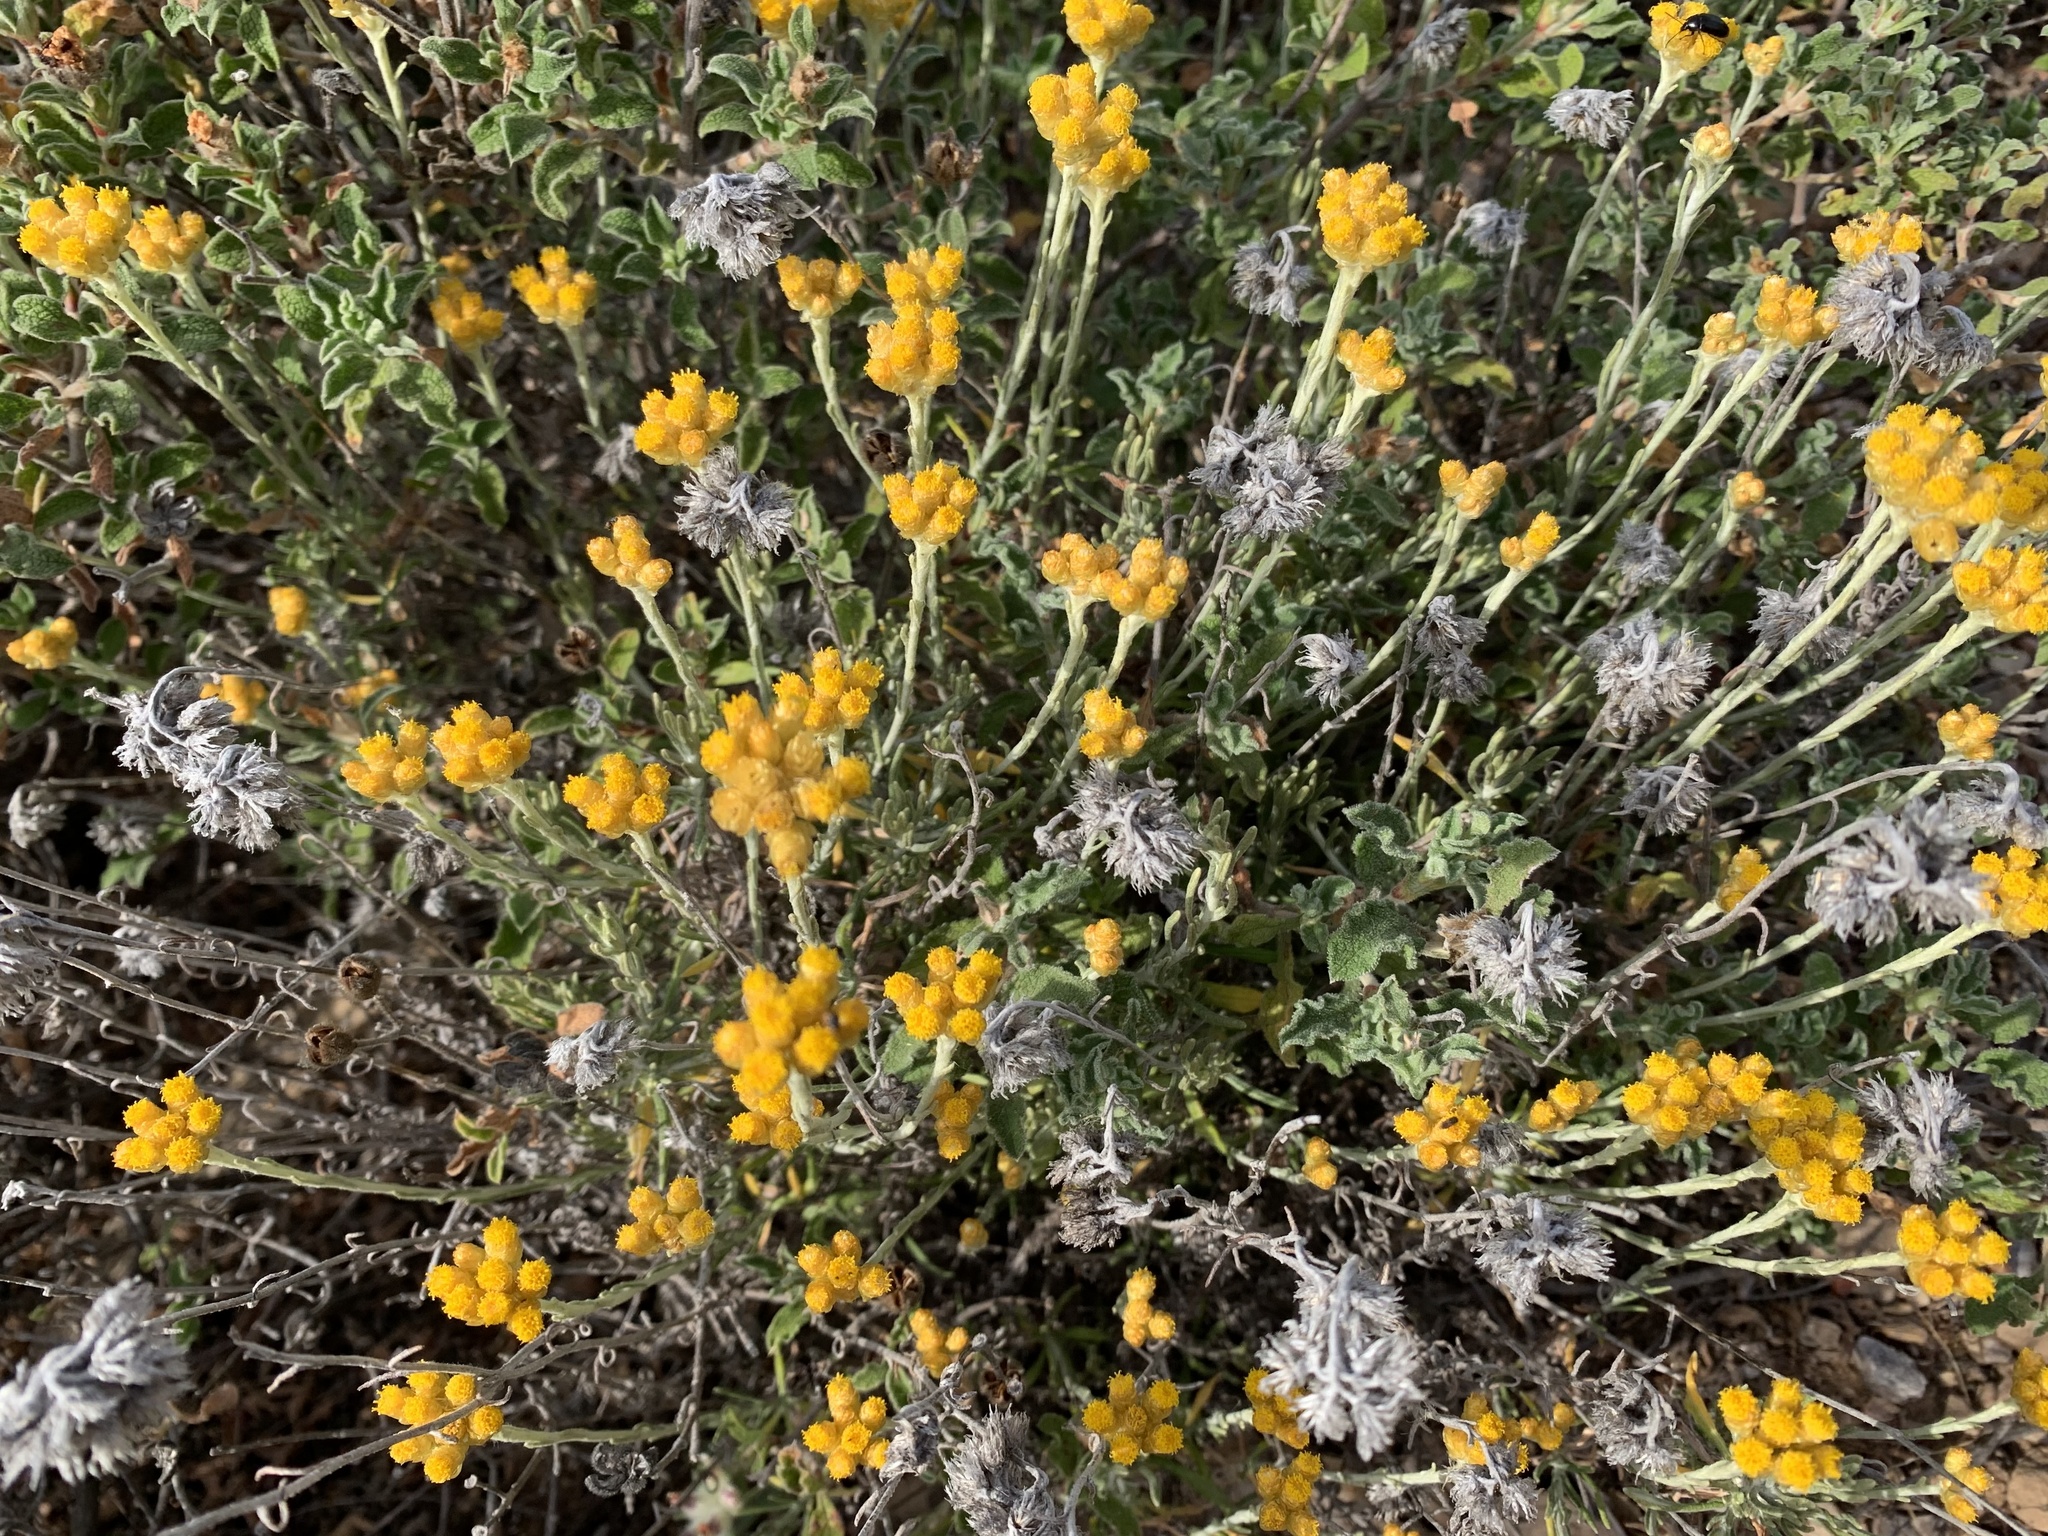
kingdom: Plantae
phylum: Tracheophyta
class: Magnoliopsida
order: Asterales
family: Asteraceae
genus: Helichrysum
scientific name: Helichrysum stoechas
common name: Goldilocks
